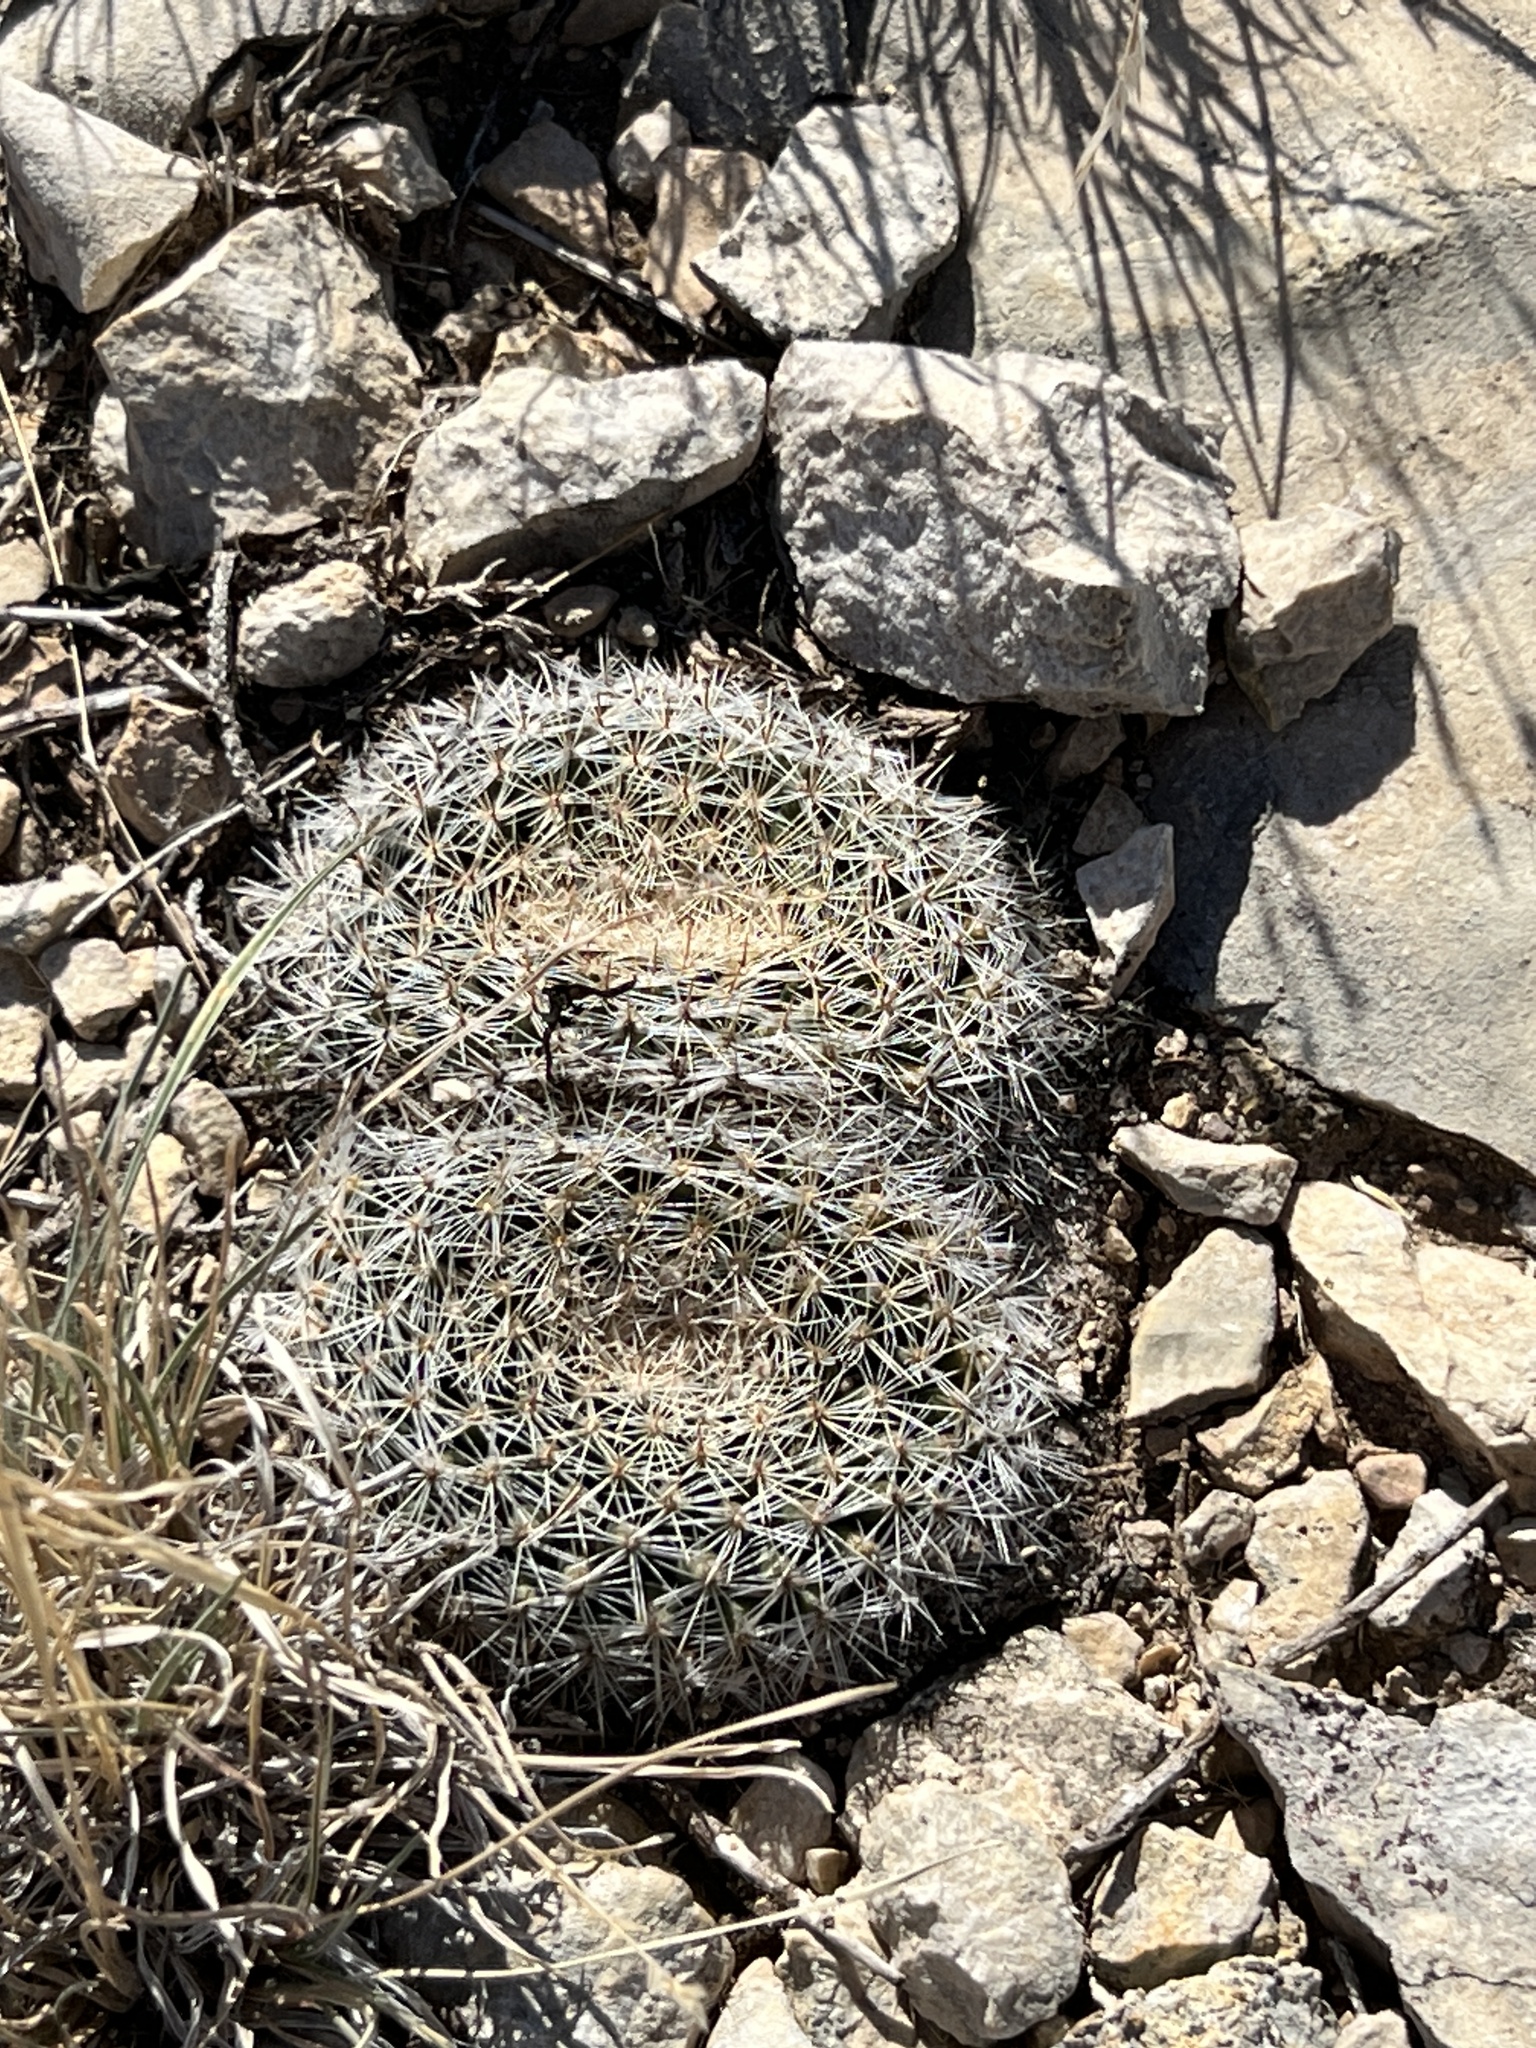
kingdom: Plantae
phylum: Tracheophyta
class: Magnoliopsida
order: Caryophyllales
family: Cactaceae
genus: Mammillaria
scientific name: Mammillaria heyderi
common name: Little nipple cactus
